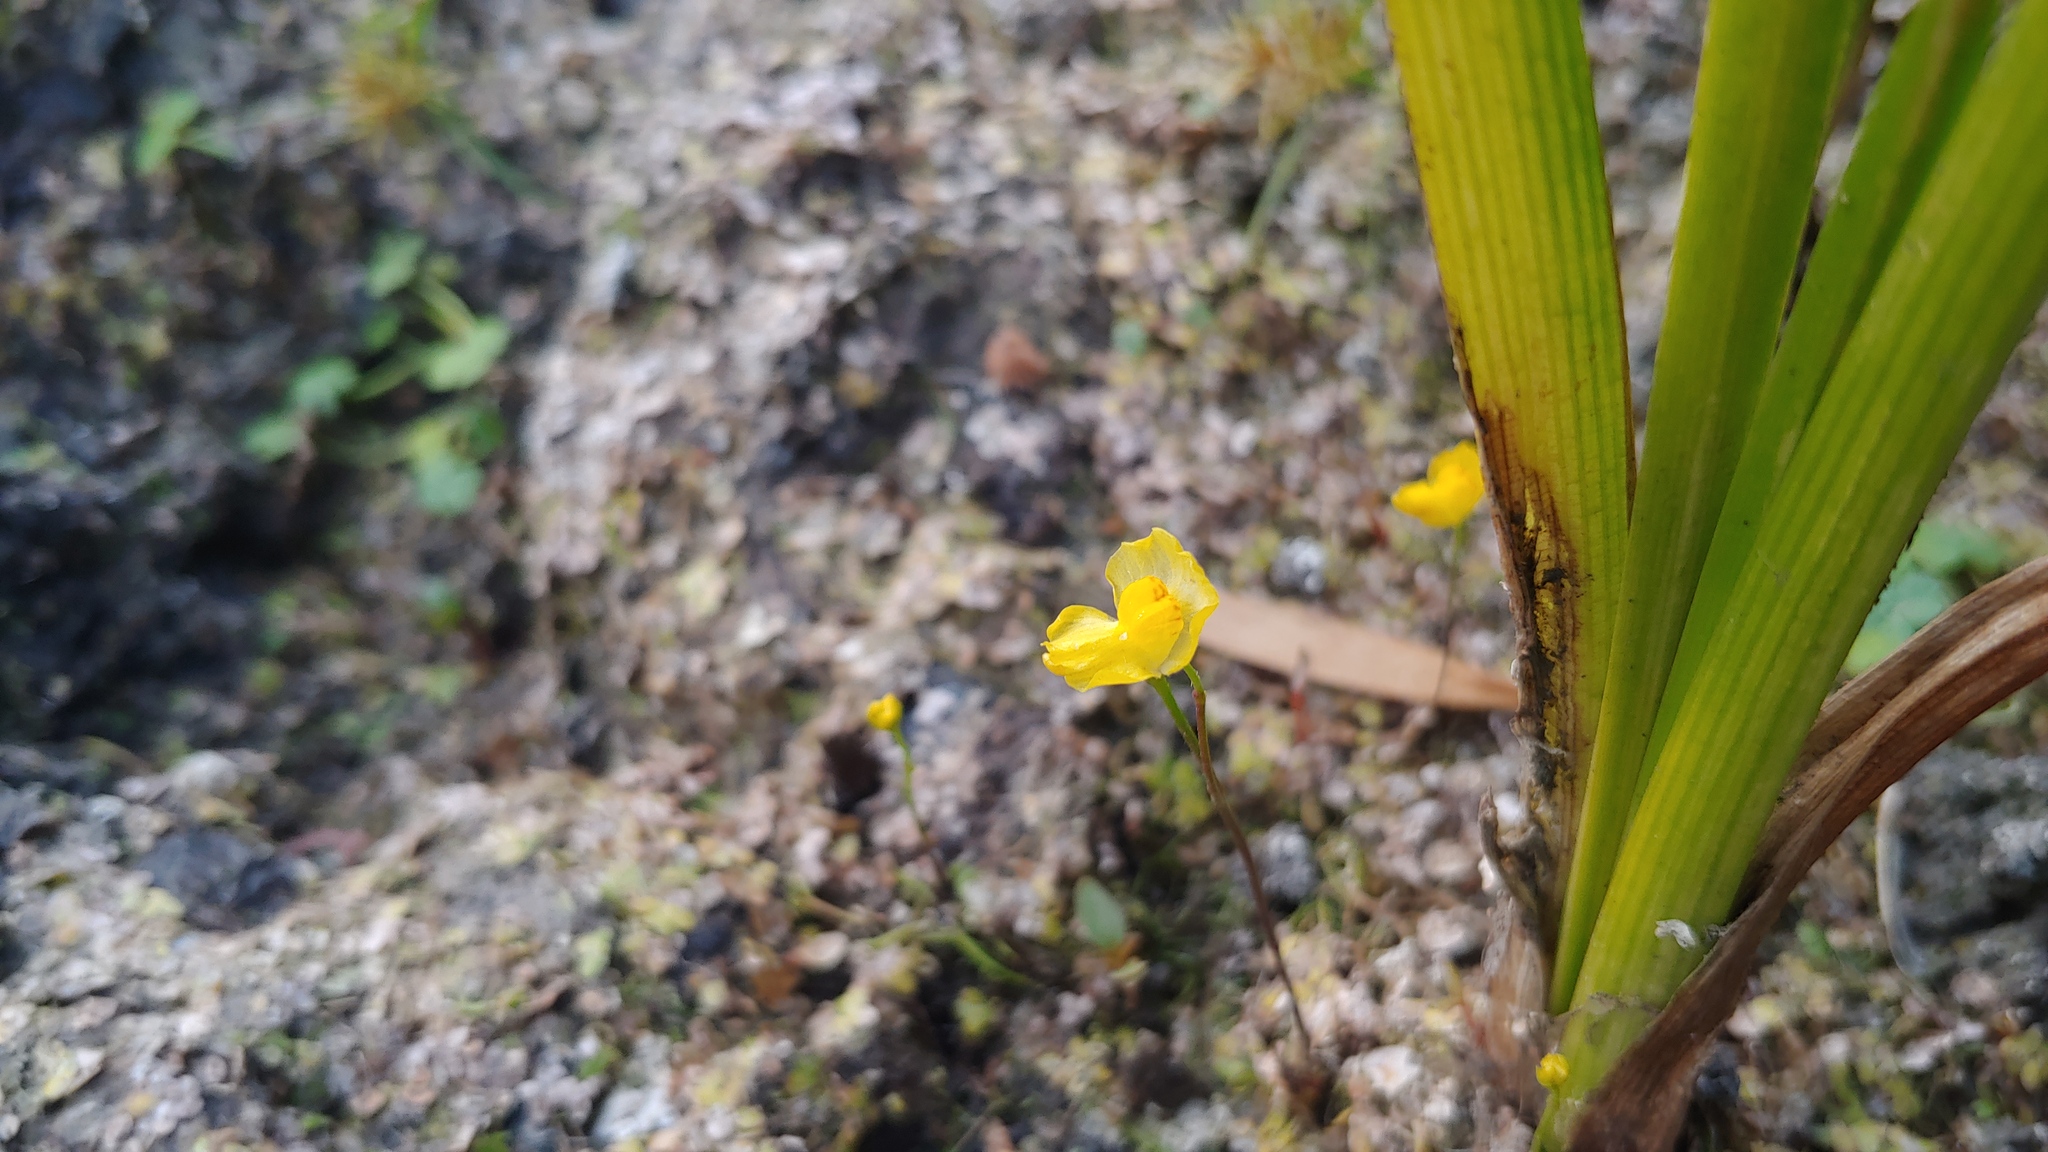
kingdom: Plantae
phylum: Tracheophyta
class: Magnoliopsida
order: Lamiales
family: Lentibulariaceae
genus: Utricularia
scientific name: Utricularia gibba
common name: Humped bladderwort
